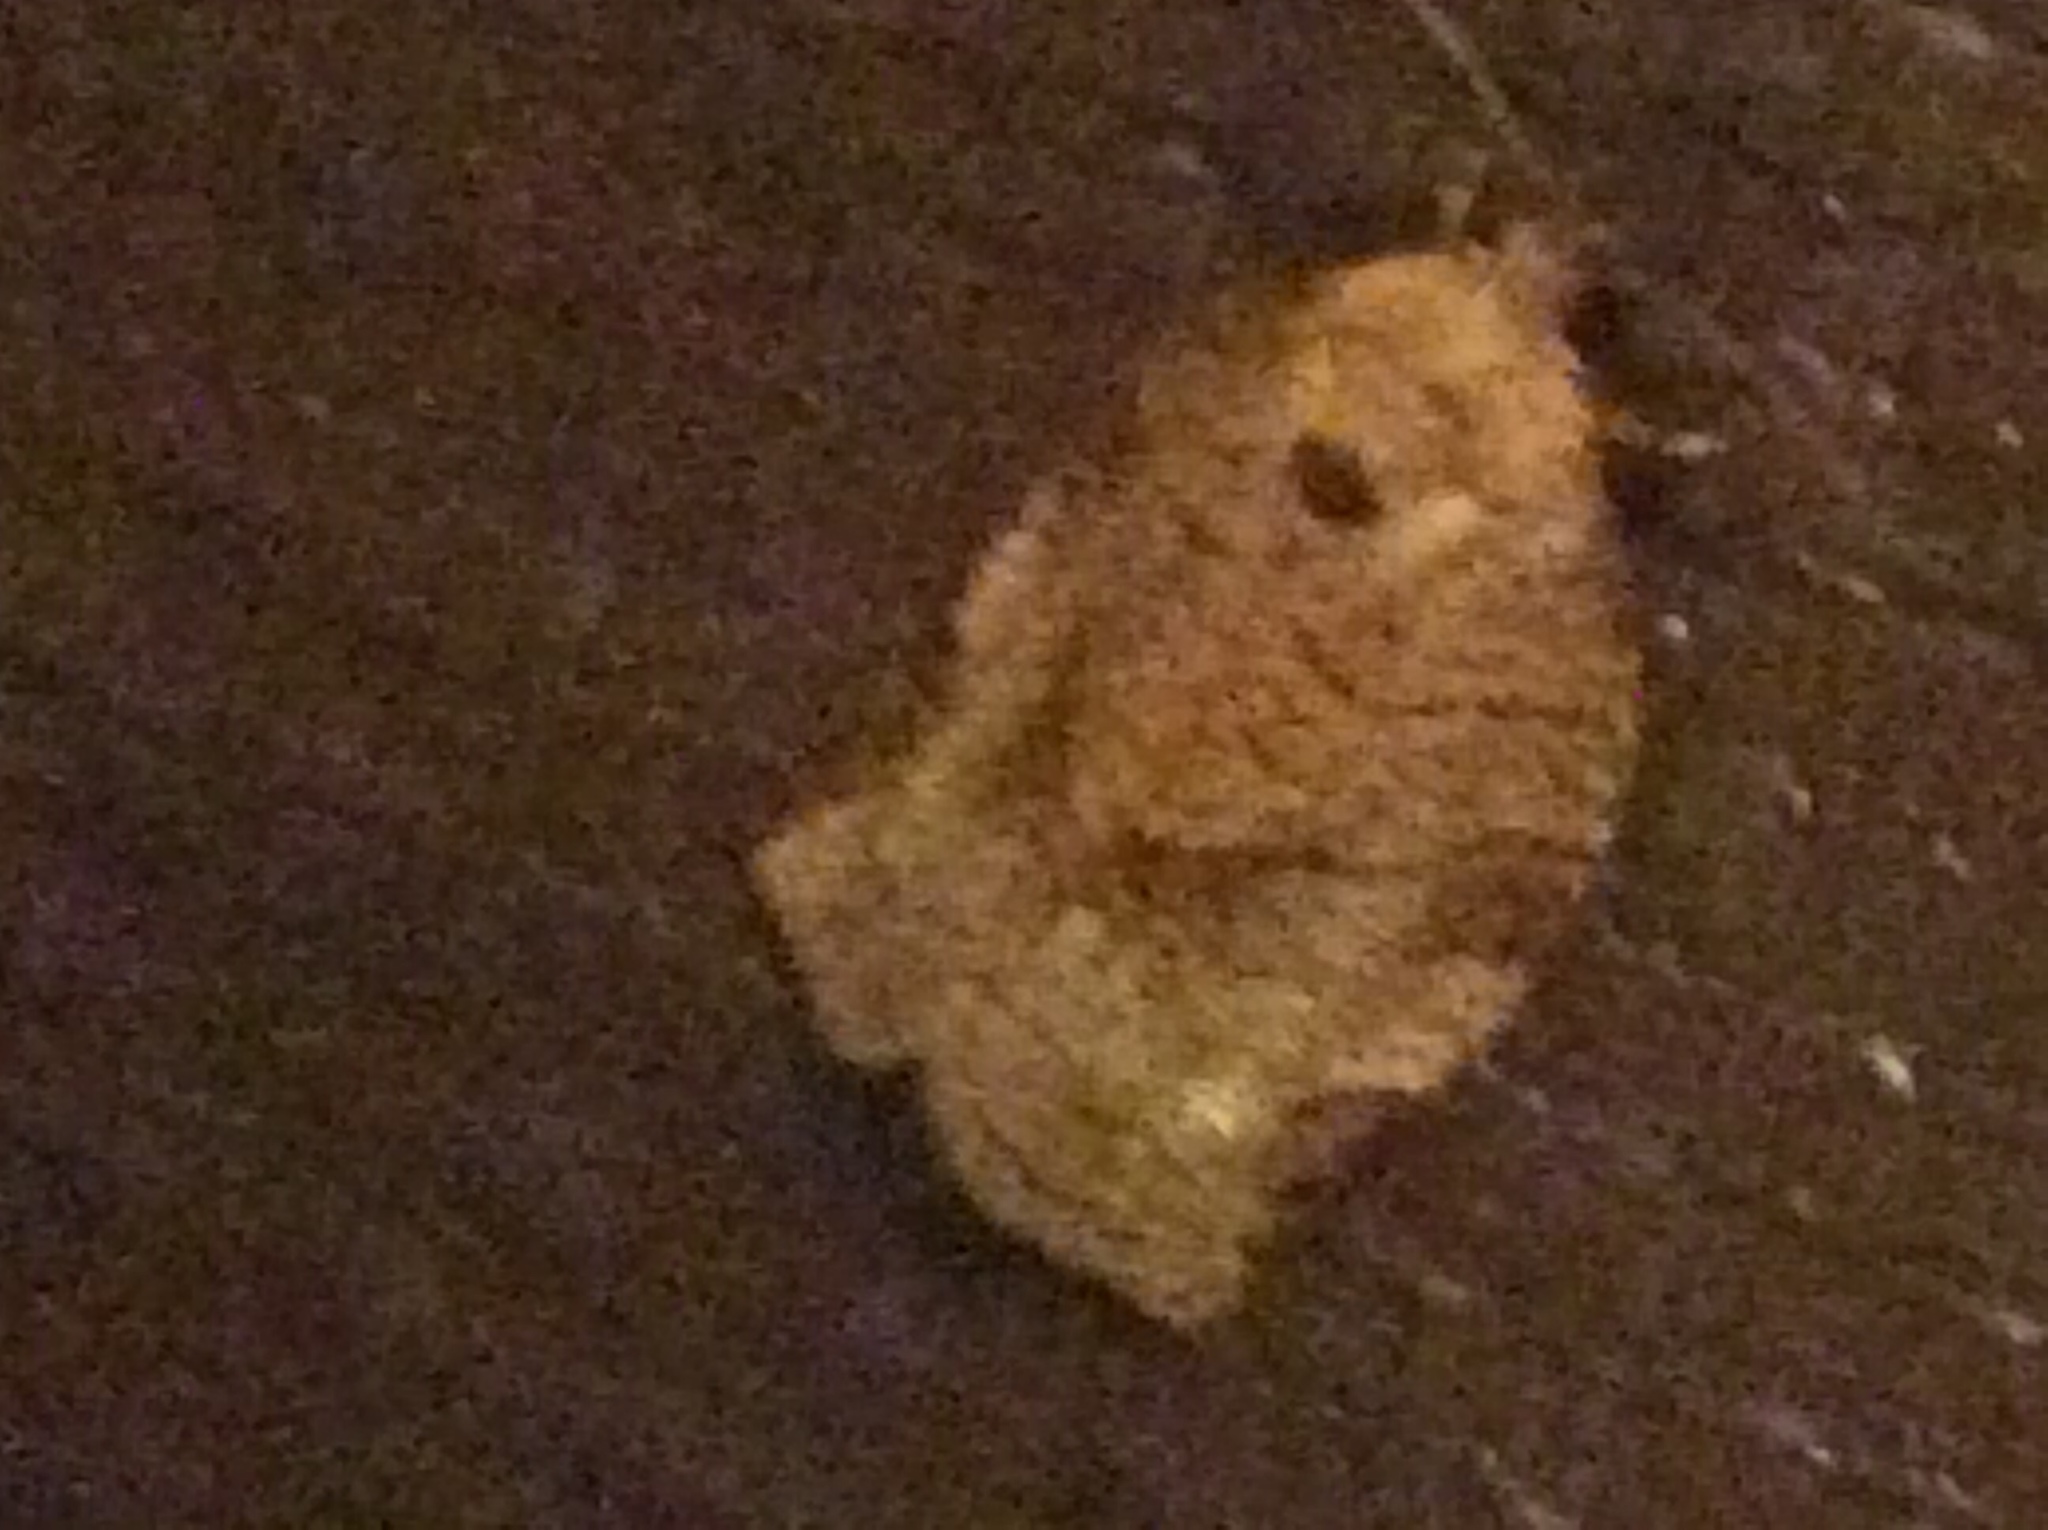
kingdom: Animalia
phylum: Arthropoda
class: Insecta
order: Lepidoptera
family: Tortricidae
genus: Choristoneura
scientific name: Choristoneura rosaceana
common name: Oblique-banded leafroller moth
